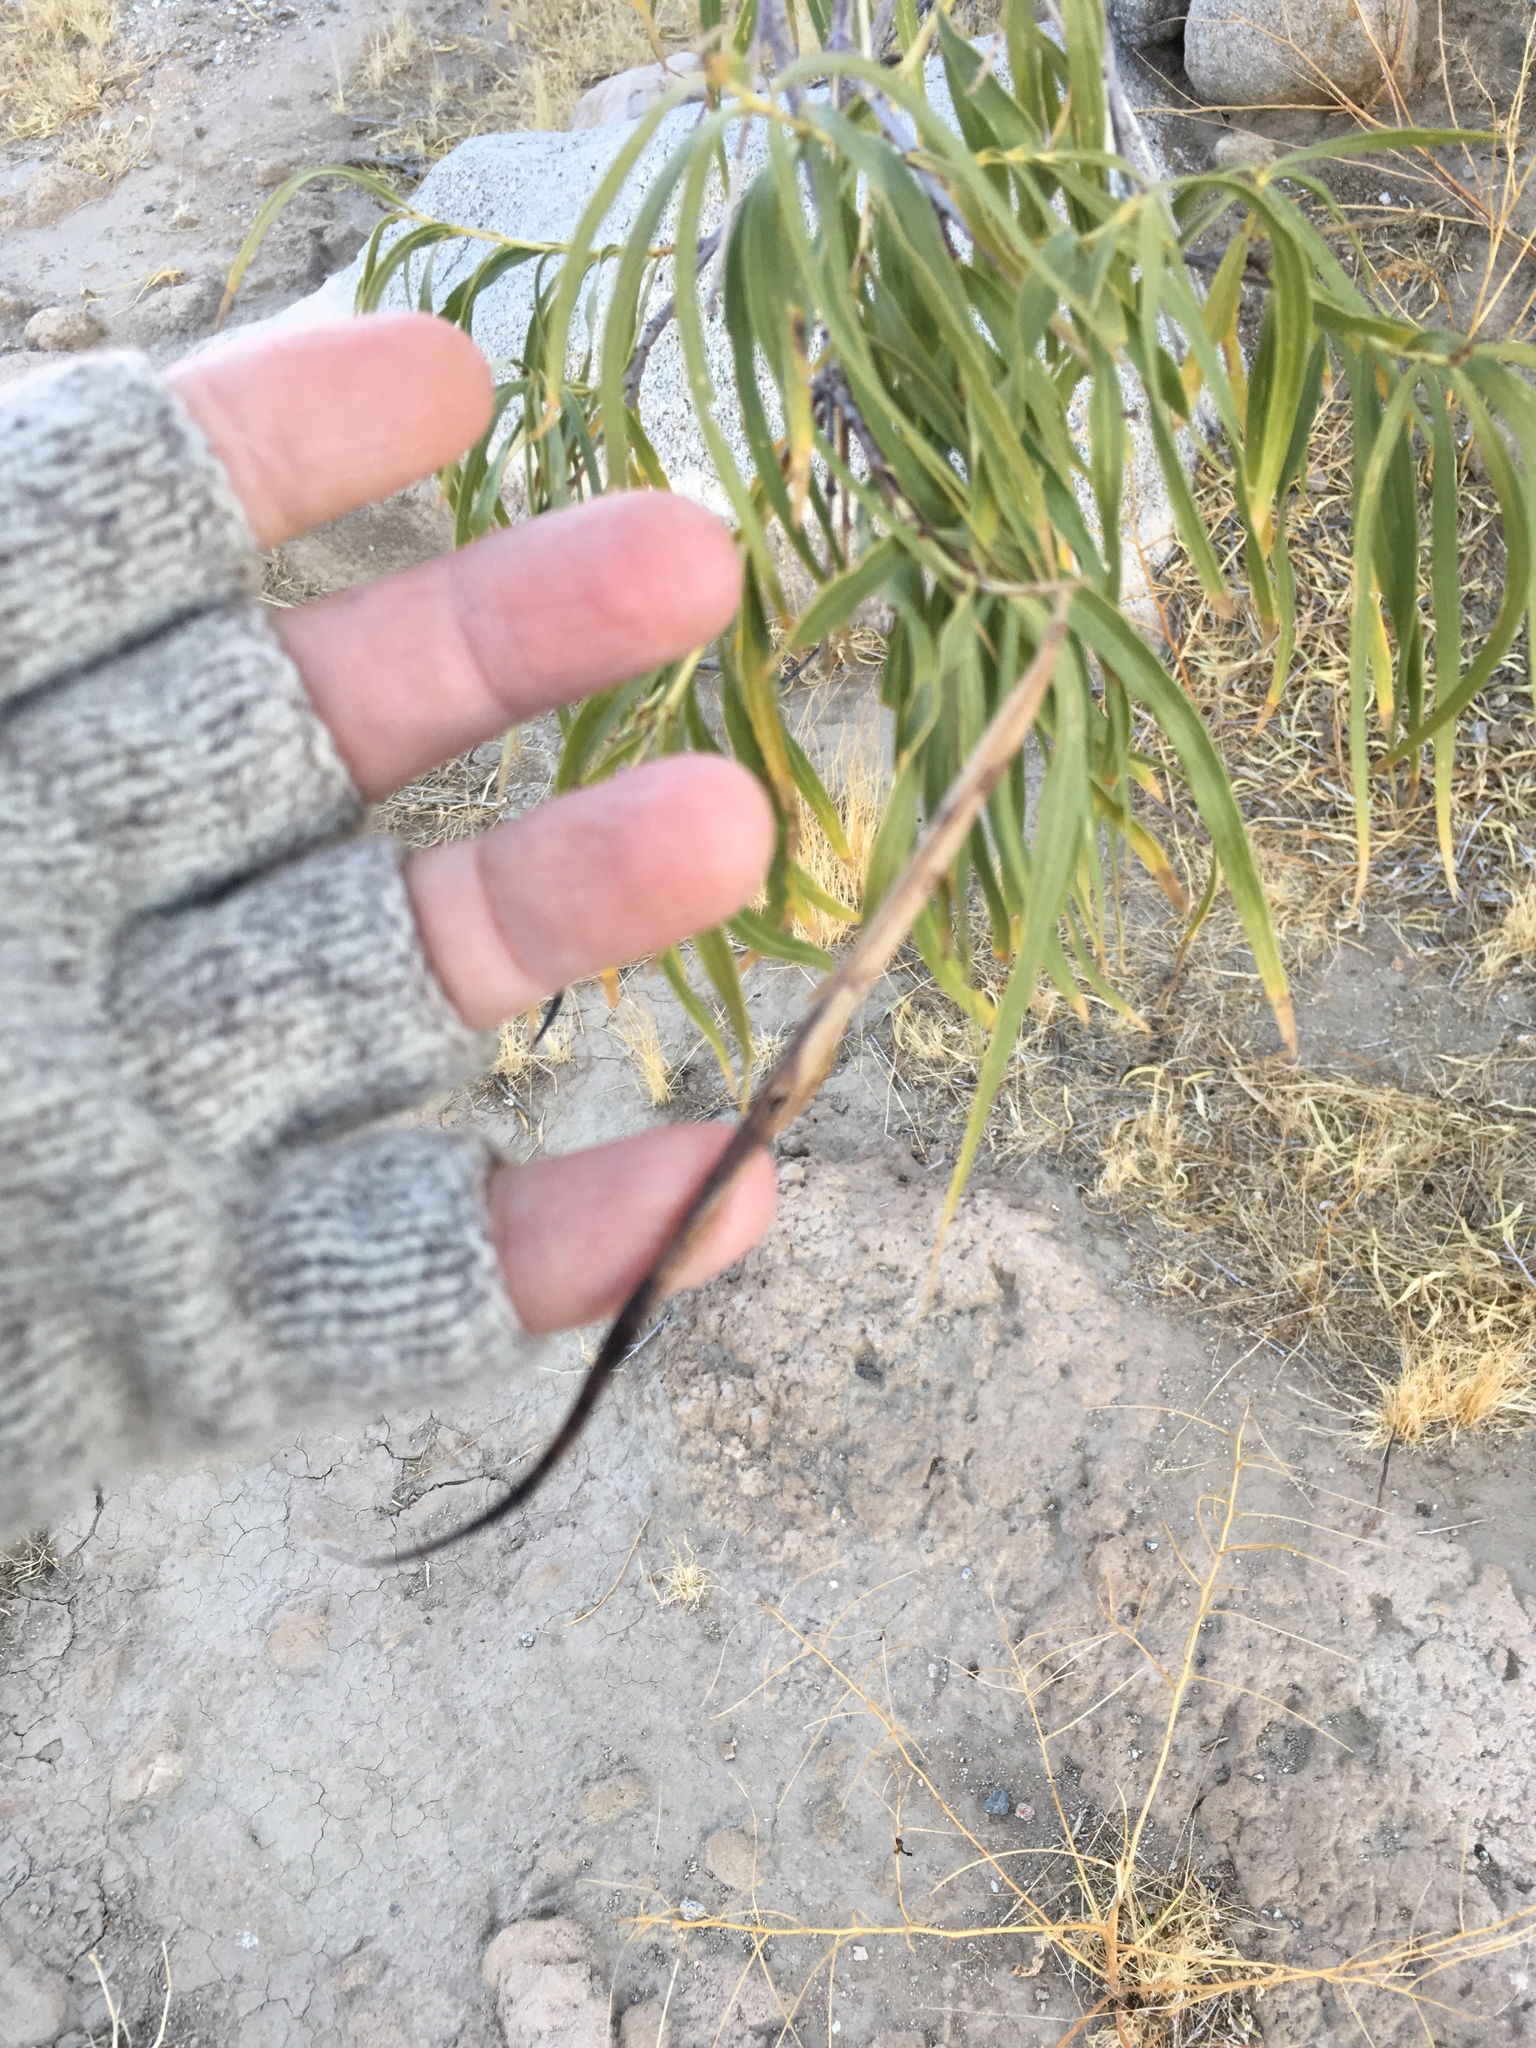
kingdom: Plantae
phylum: Tracheophyta
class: Magnoliopsida
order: Lamiales
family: Bignoniaceae
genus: Chilopsis
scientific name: Chilopsis linearis
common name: Desert-willow
